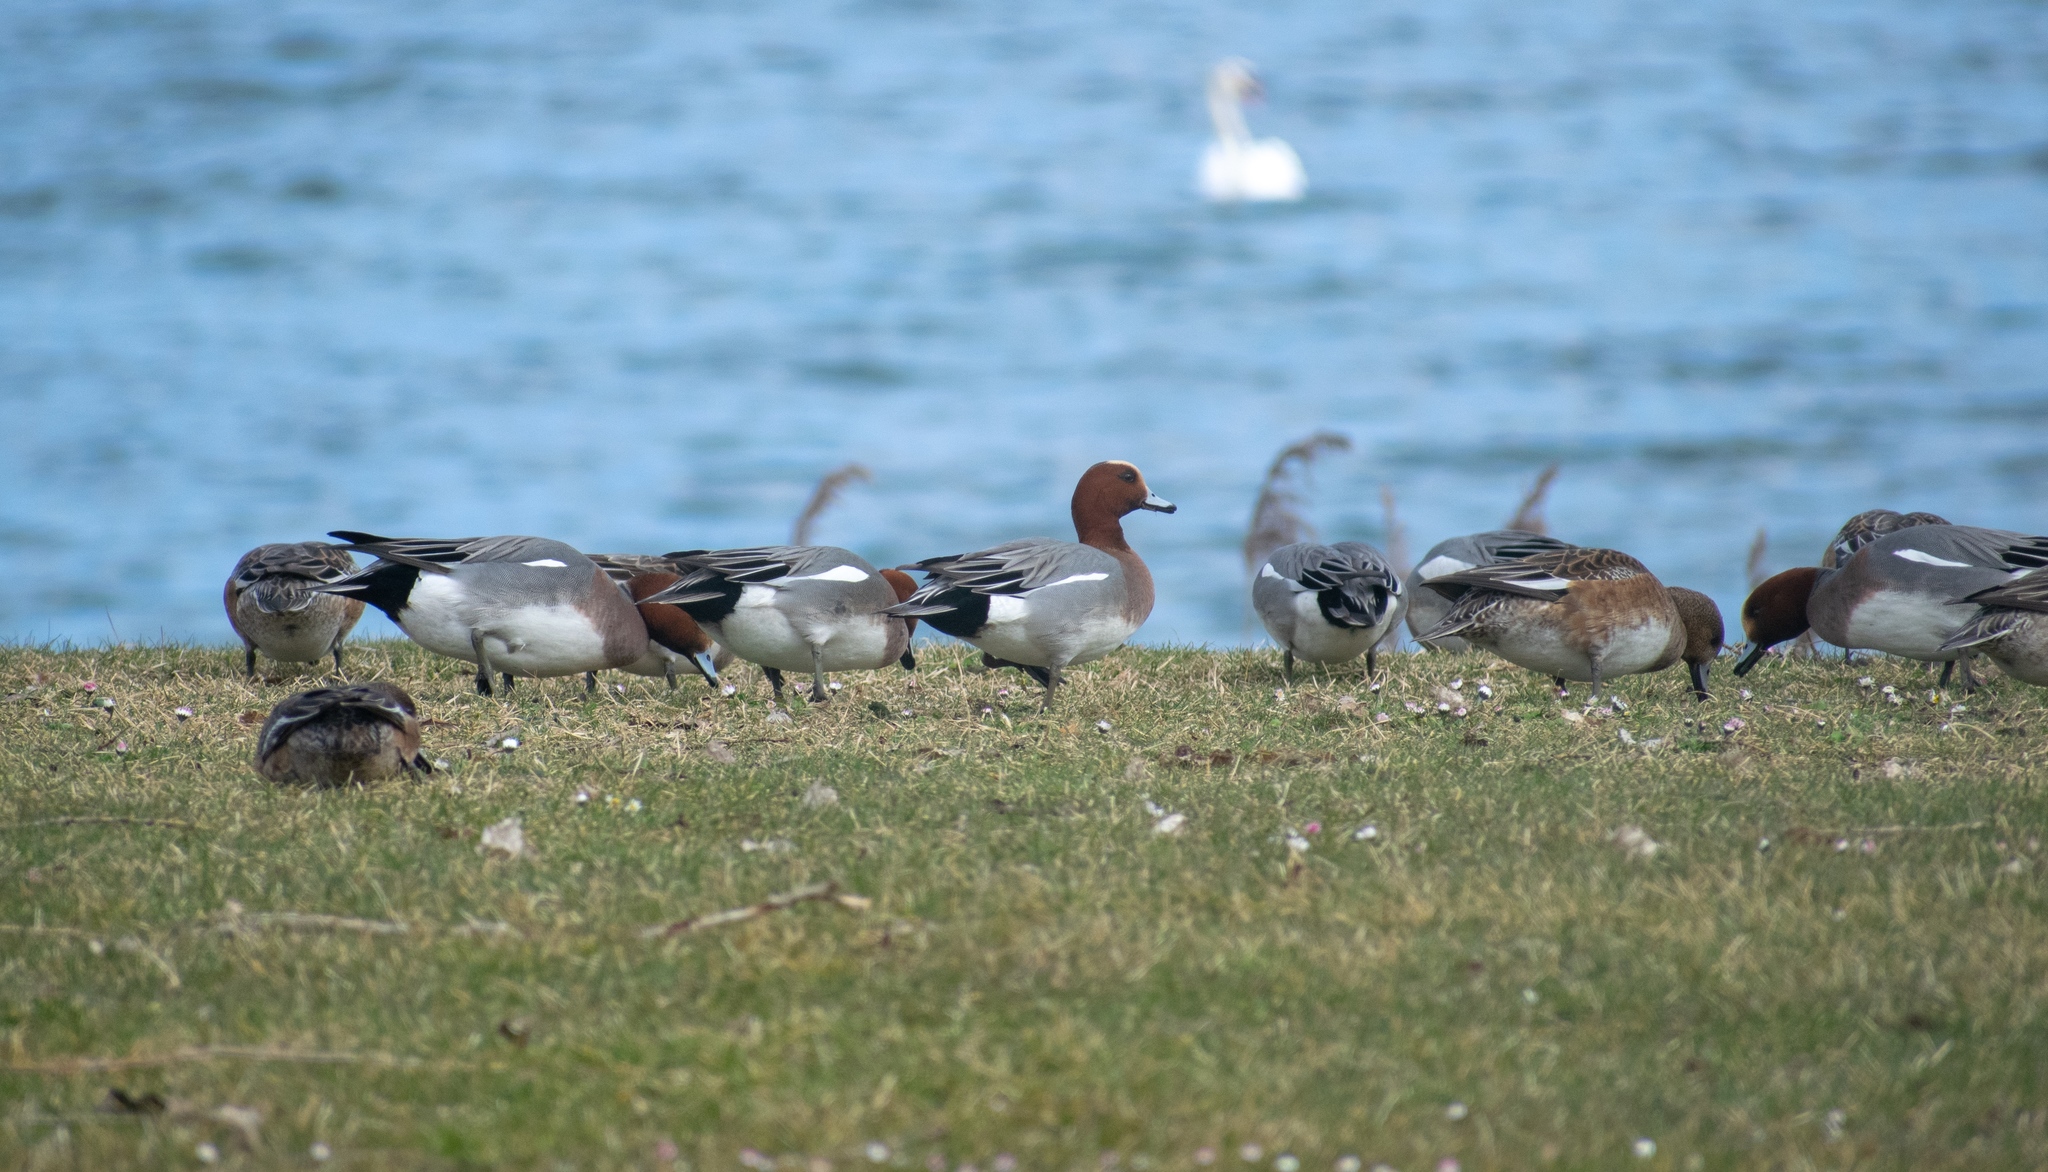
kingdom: Animalia
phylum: Chordata
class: Aves
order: Anseriformes
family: Anatidae
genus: Mareca
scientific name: Mareca penelope
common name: Eurasian wigeon
